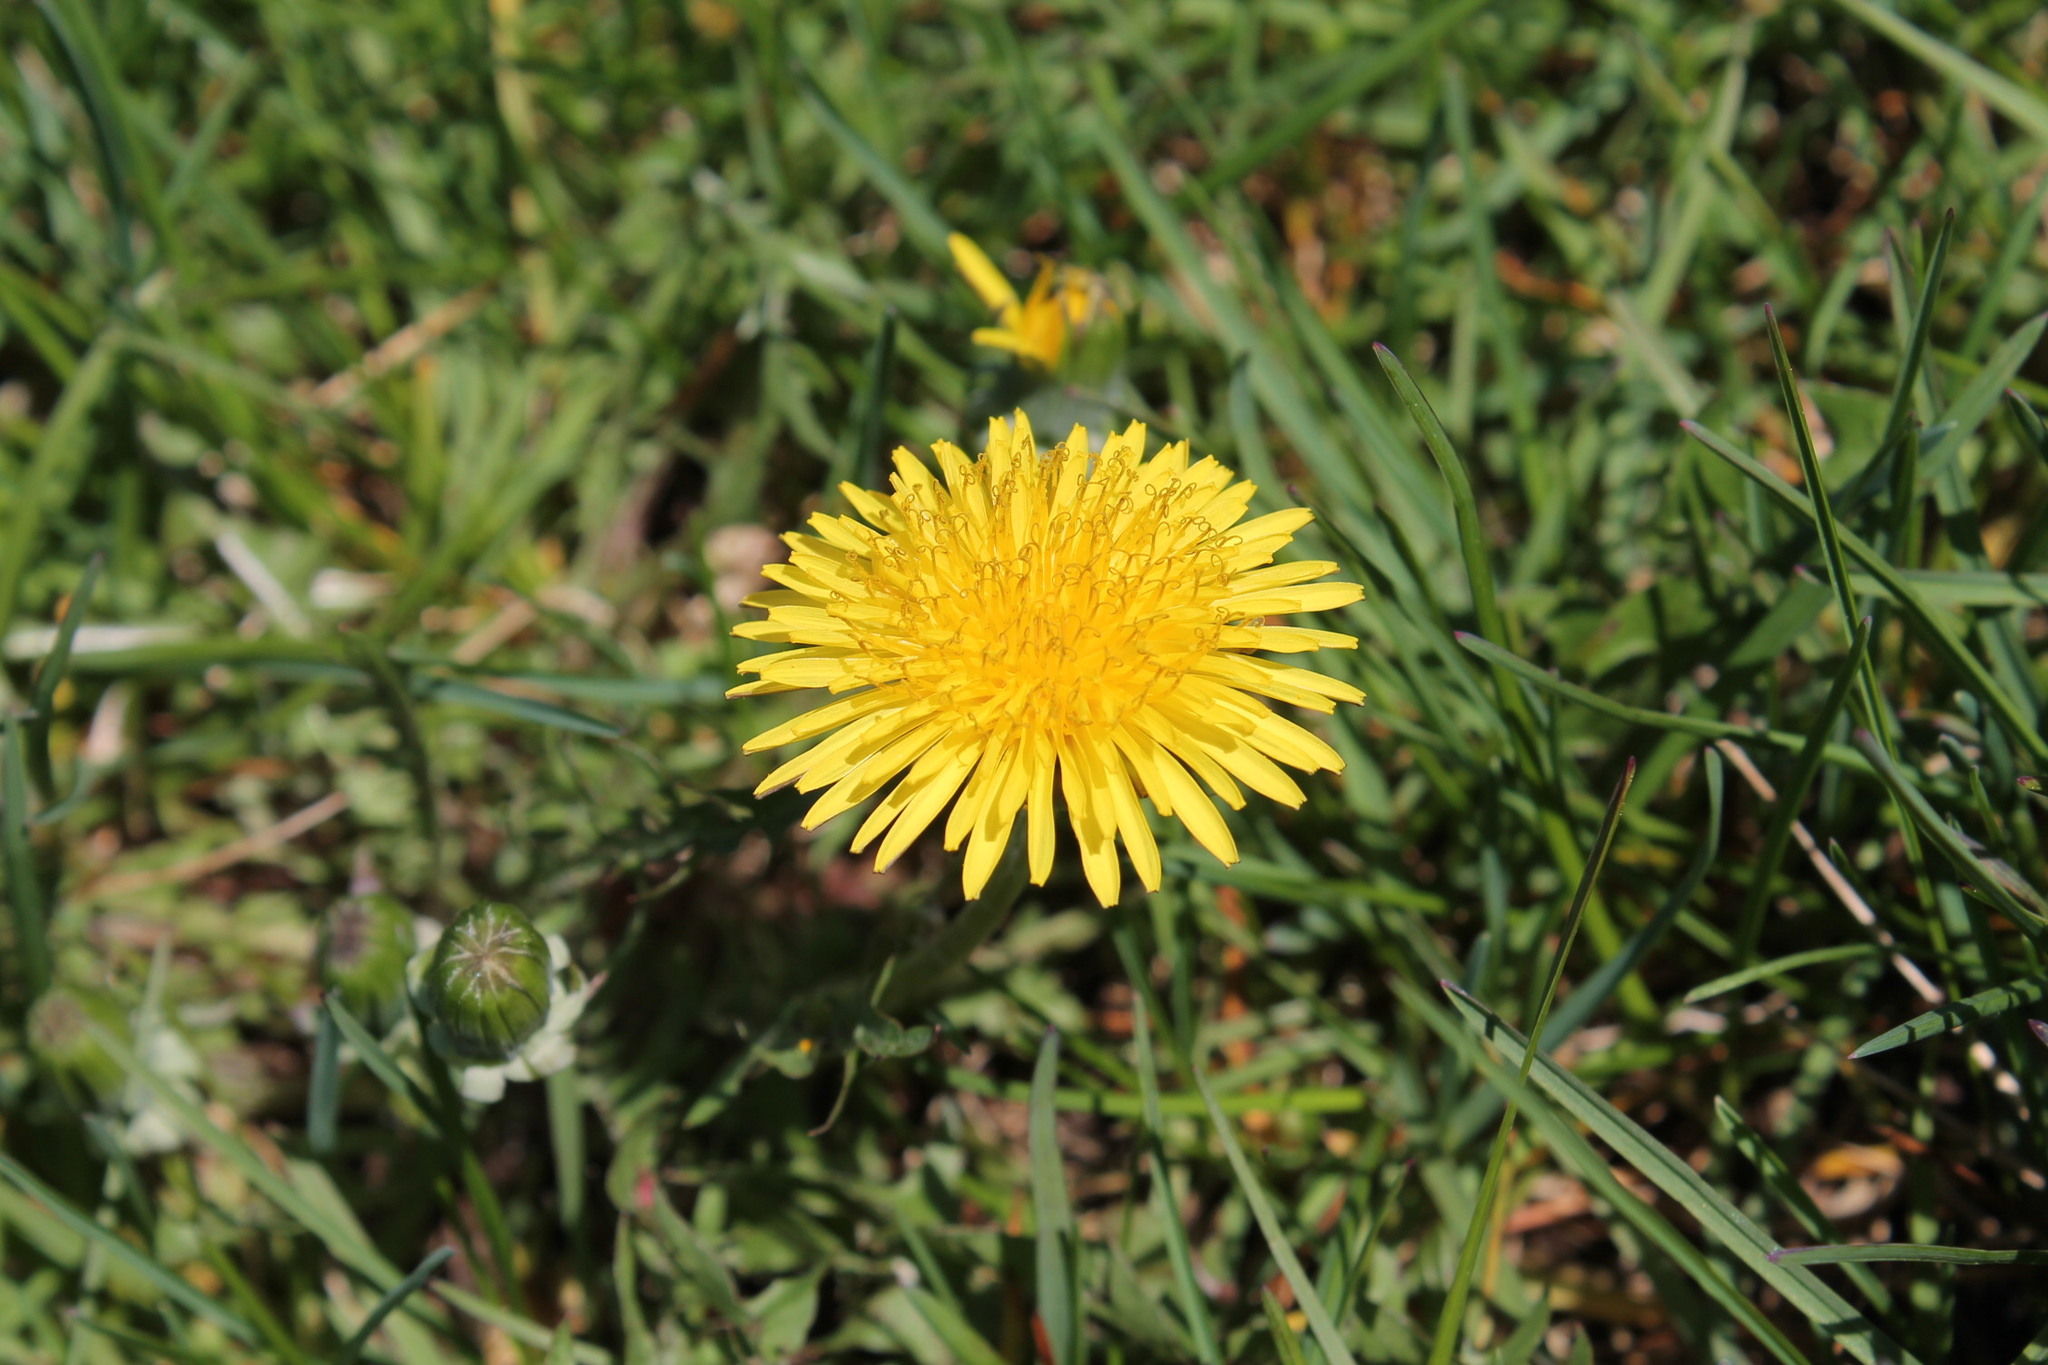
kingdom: Plantae
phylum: Tracheophyta
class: Magnoliopsida
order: Asterales
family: Asteraceae
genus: Taraxacum
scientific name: Taraxacum officinale
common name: Common dandelion
